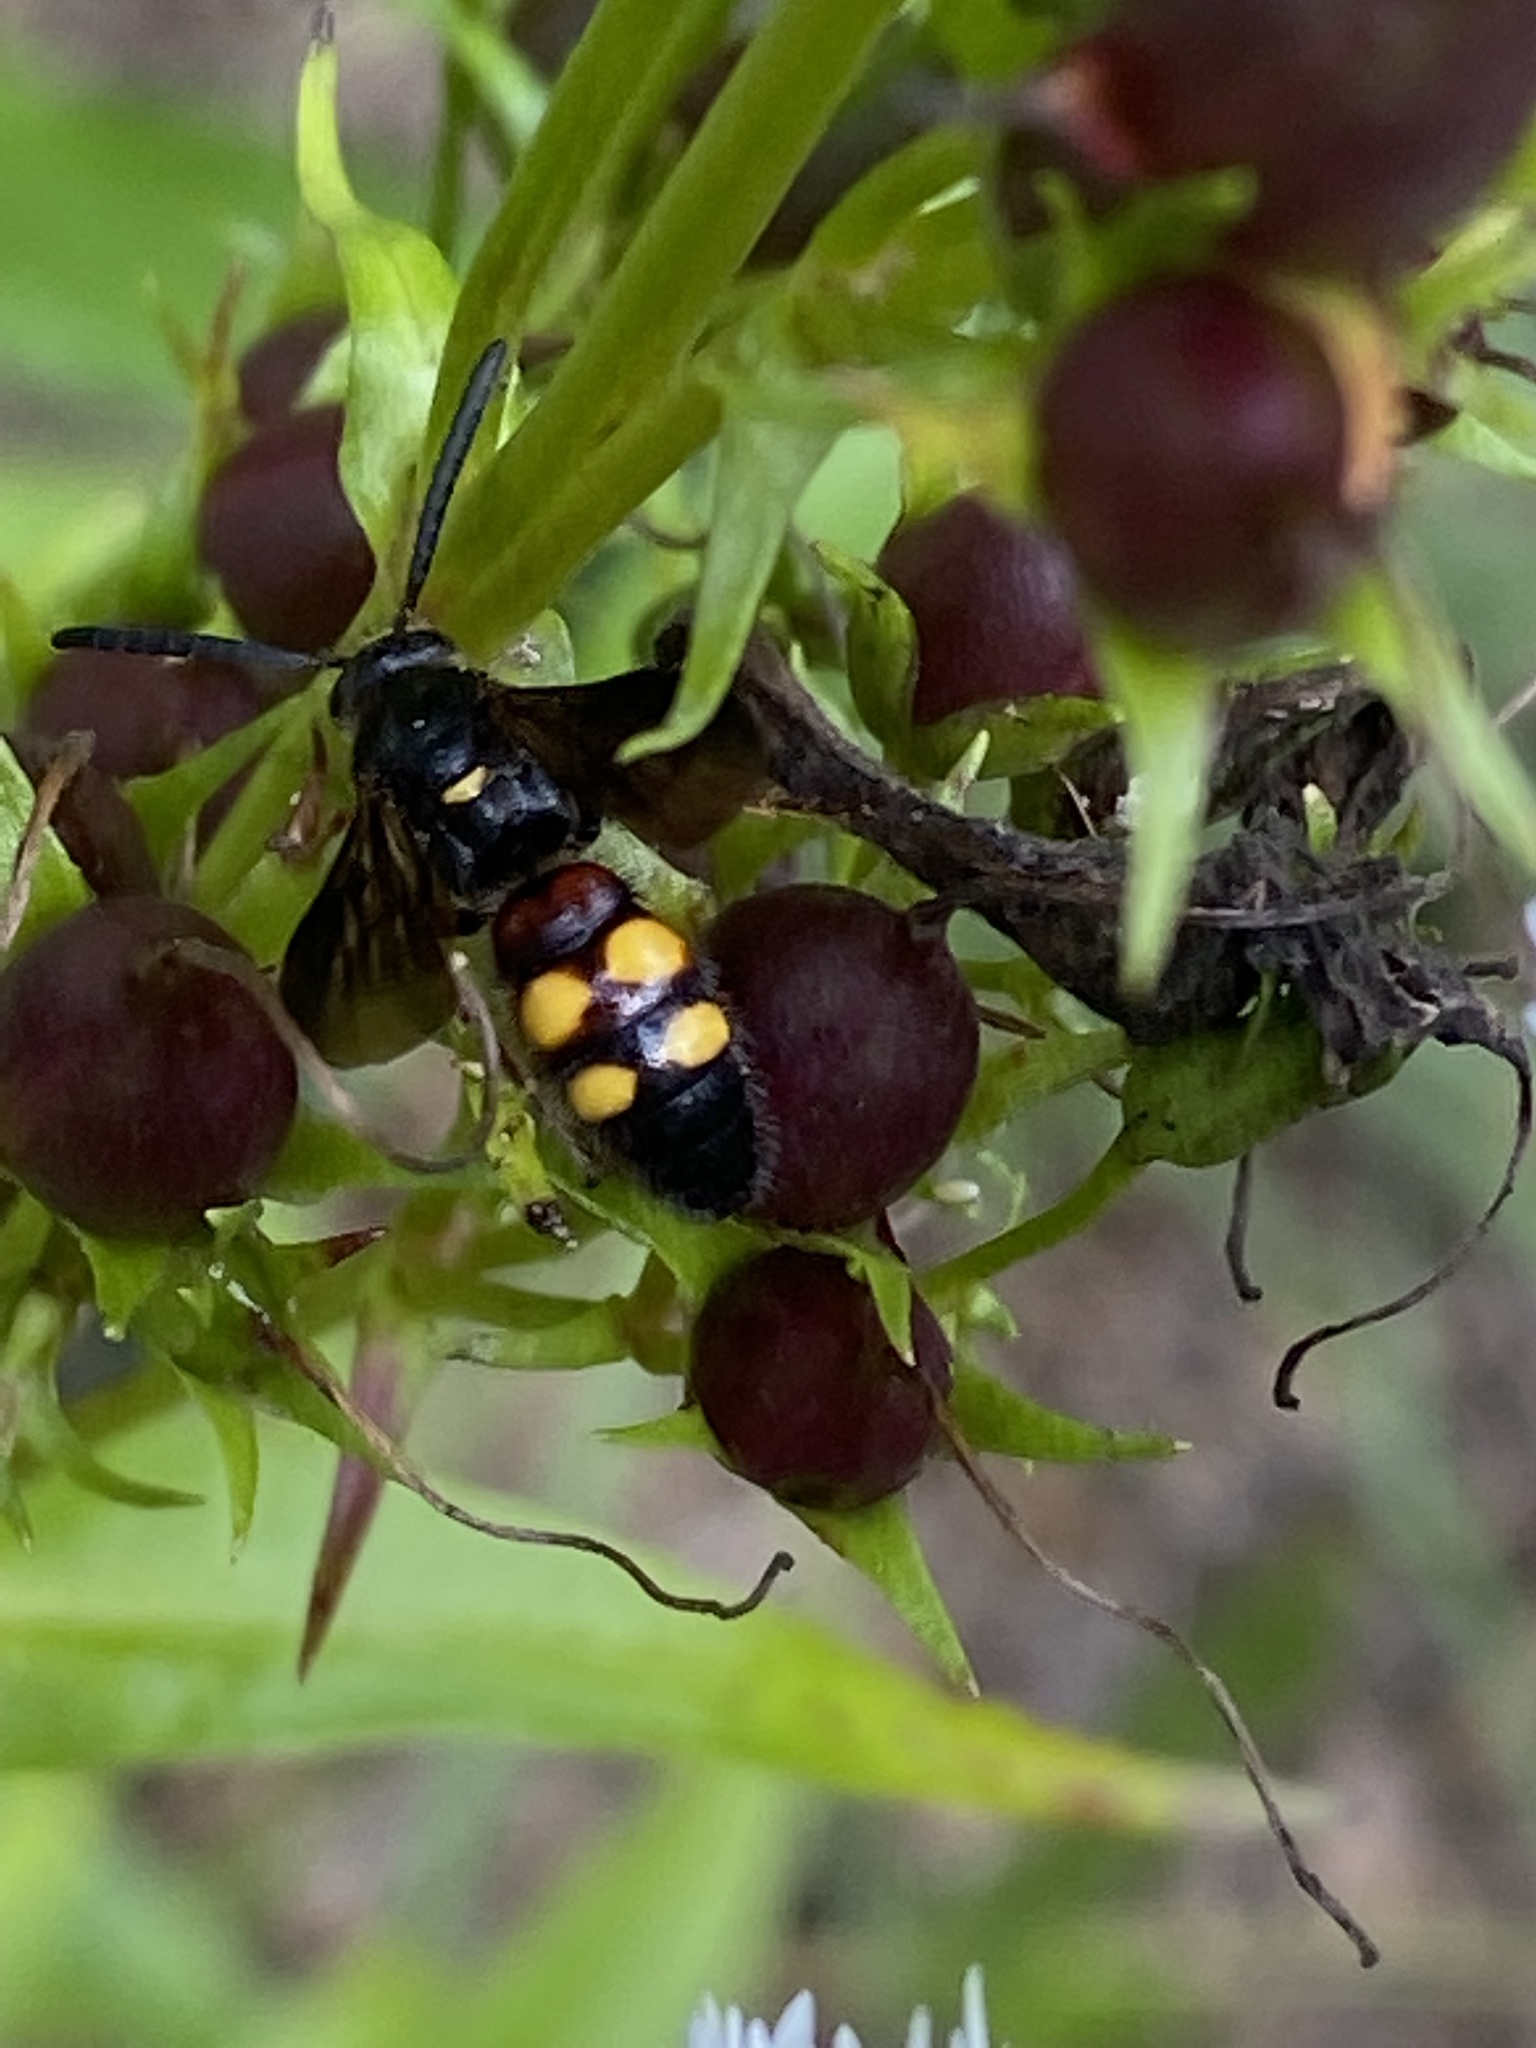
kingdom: Animalia
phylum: Arthropoda
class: Insecta
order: Hymenoptera
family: Scoliidae
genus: Scolia
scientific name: Scolia nobilitata
